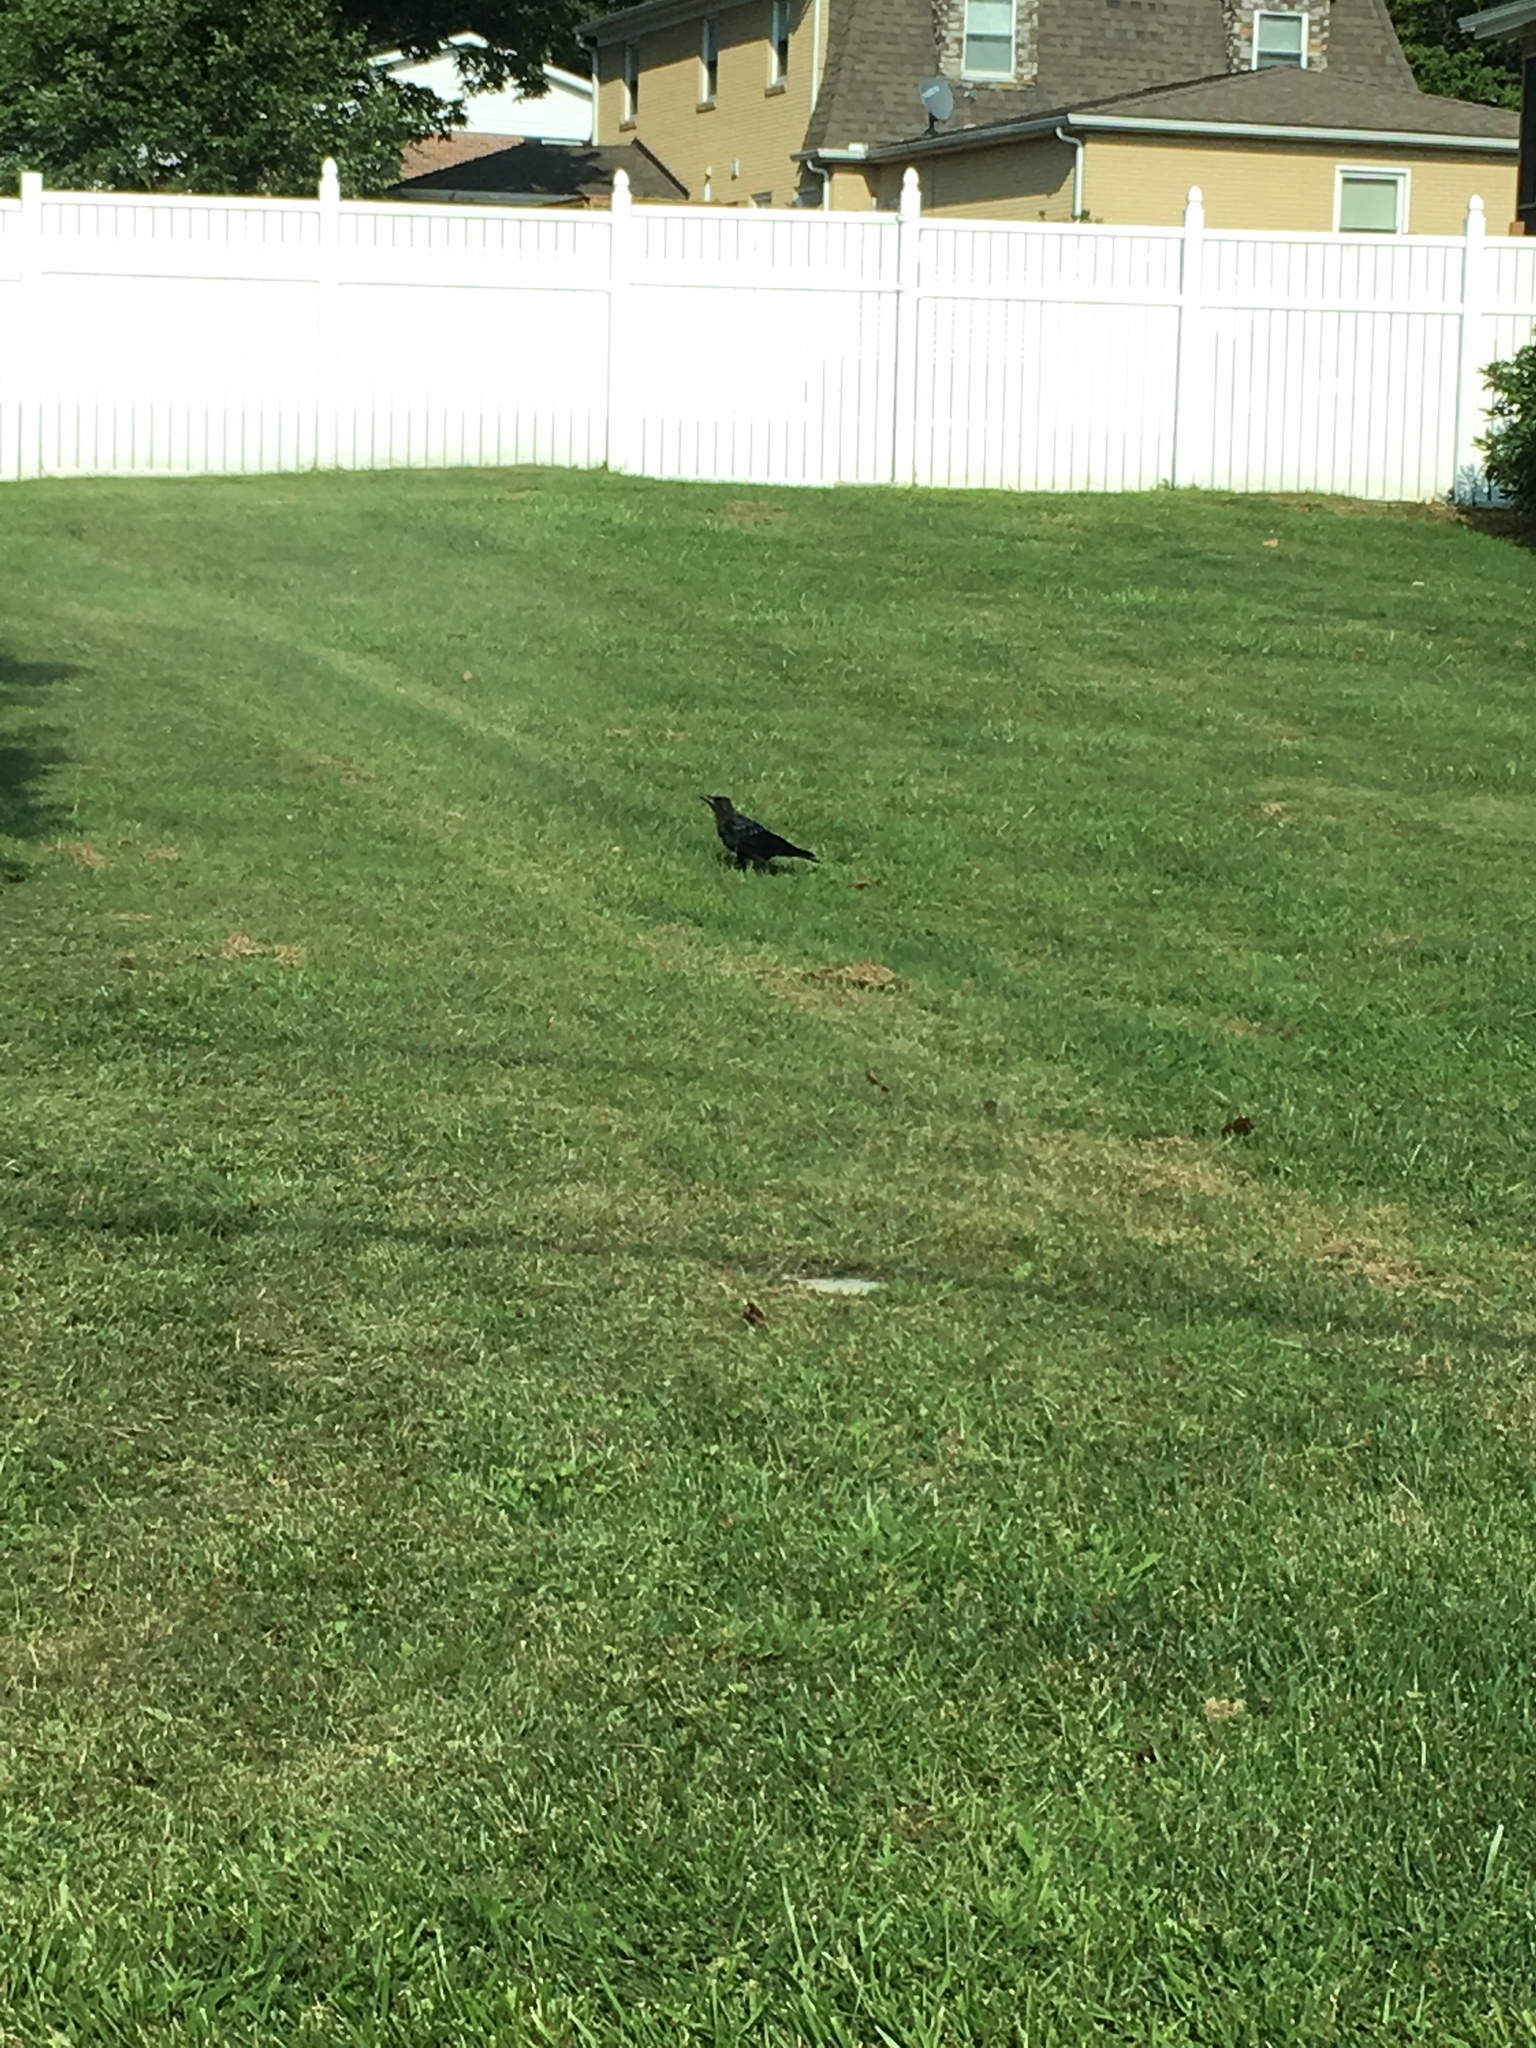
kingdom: Animalia
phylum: Chordata
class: Aves
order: Passeriformes
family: Corvidae
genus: Corvus
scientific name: Corvus brachyrhynchos
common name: American crow
